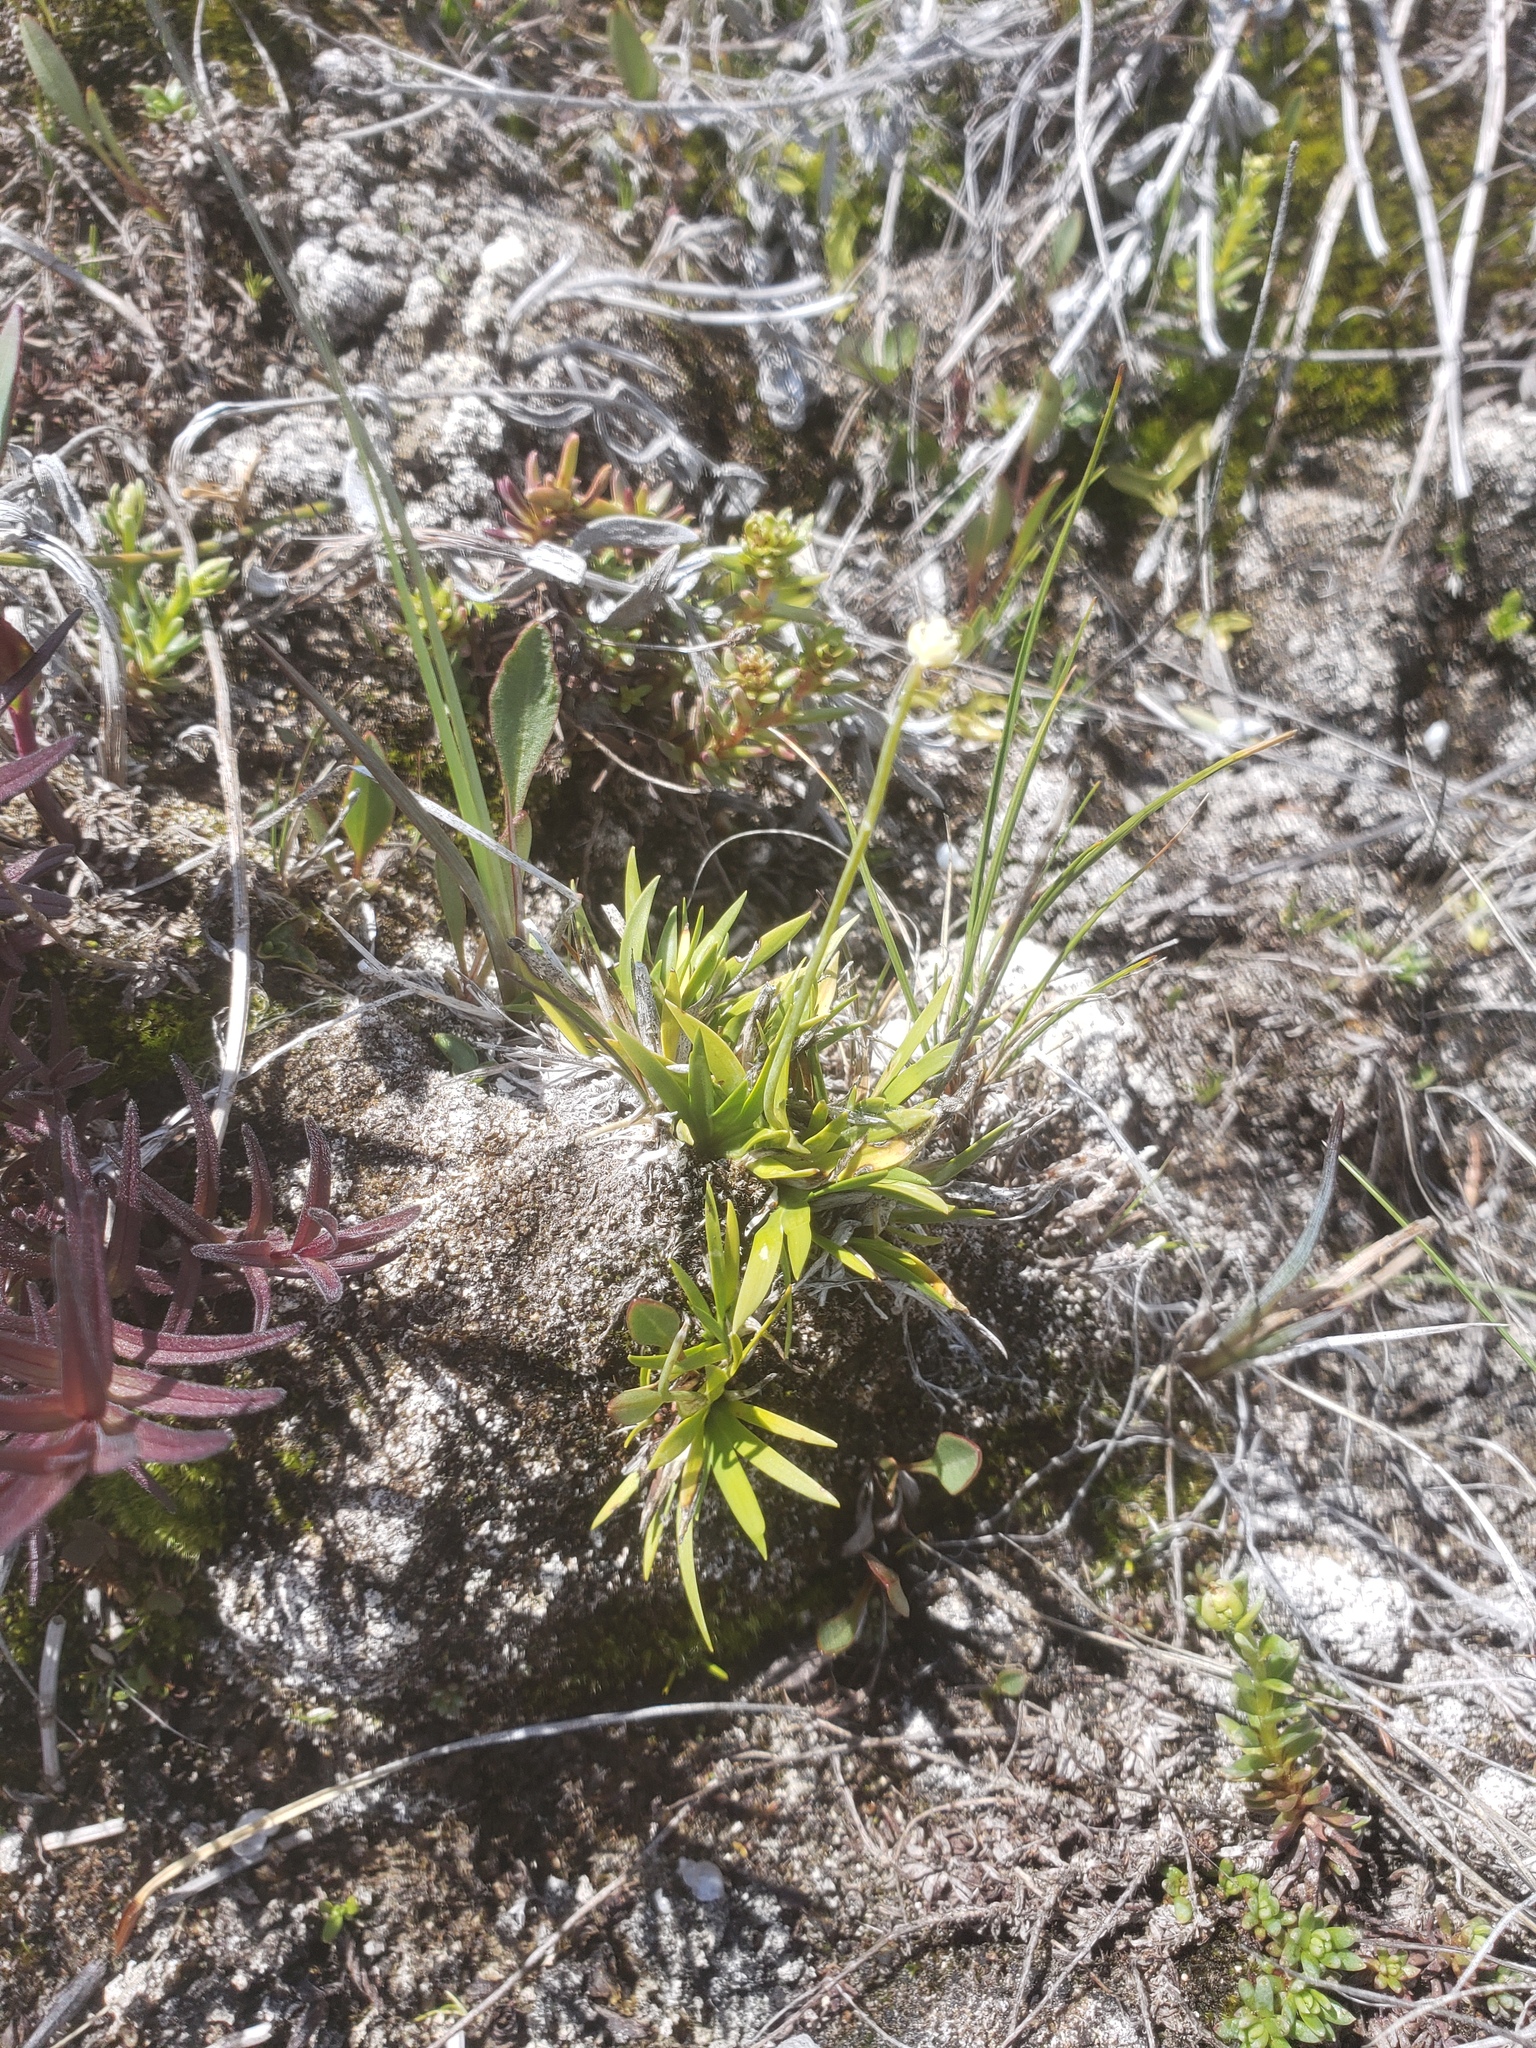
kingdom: Plantae
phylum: Tracheophyta
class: Liliopsida
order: Alismatales
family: Tofieldiaceae
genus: Tofieldia
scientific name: Tofieldia pusilla
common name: Scottish false asphodel
